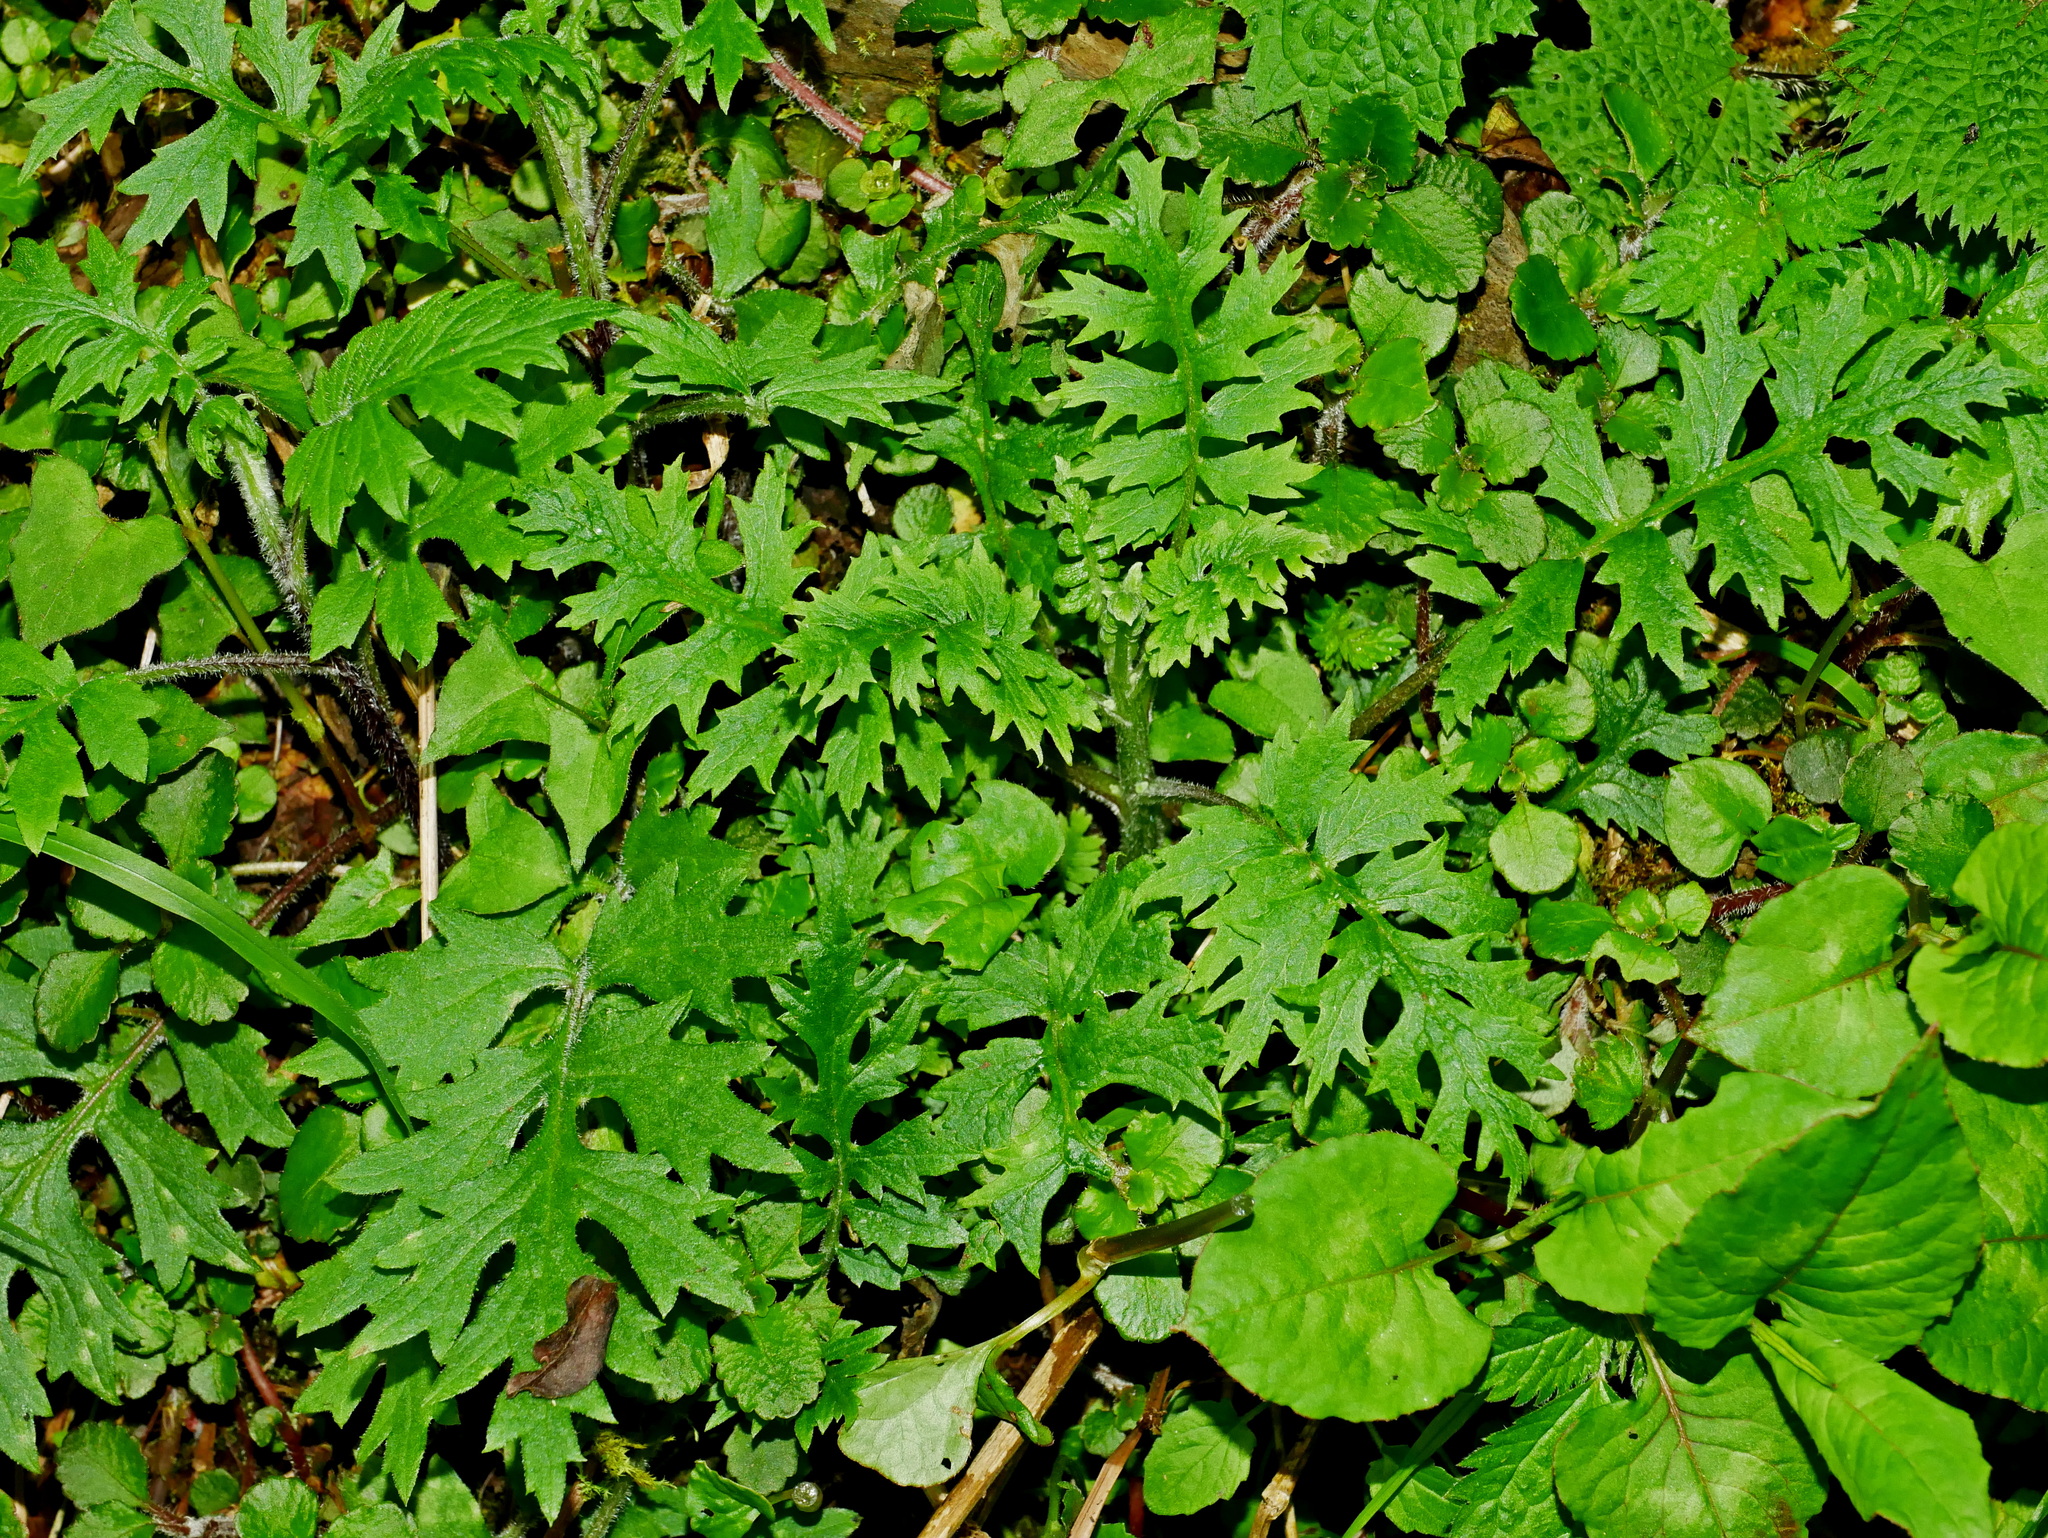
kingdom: Plantae
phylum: Tracheophyta
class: Magnoliopsida
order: Asterales
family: Asteraceae
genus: Nemosenecio
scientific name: Nemosenecio formosanus
